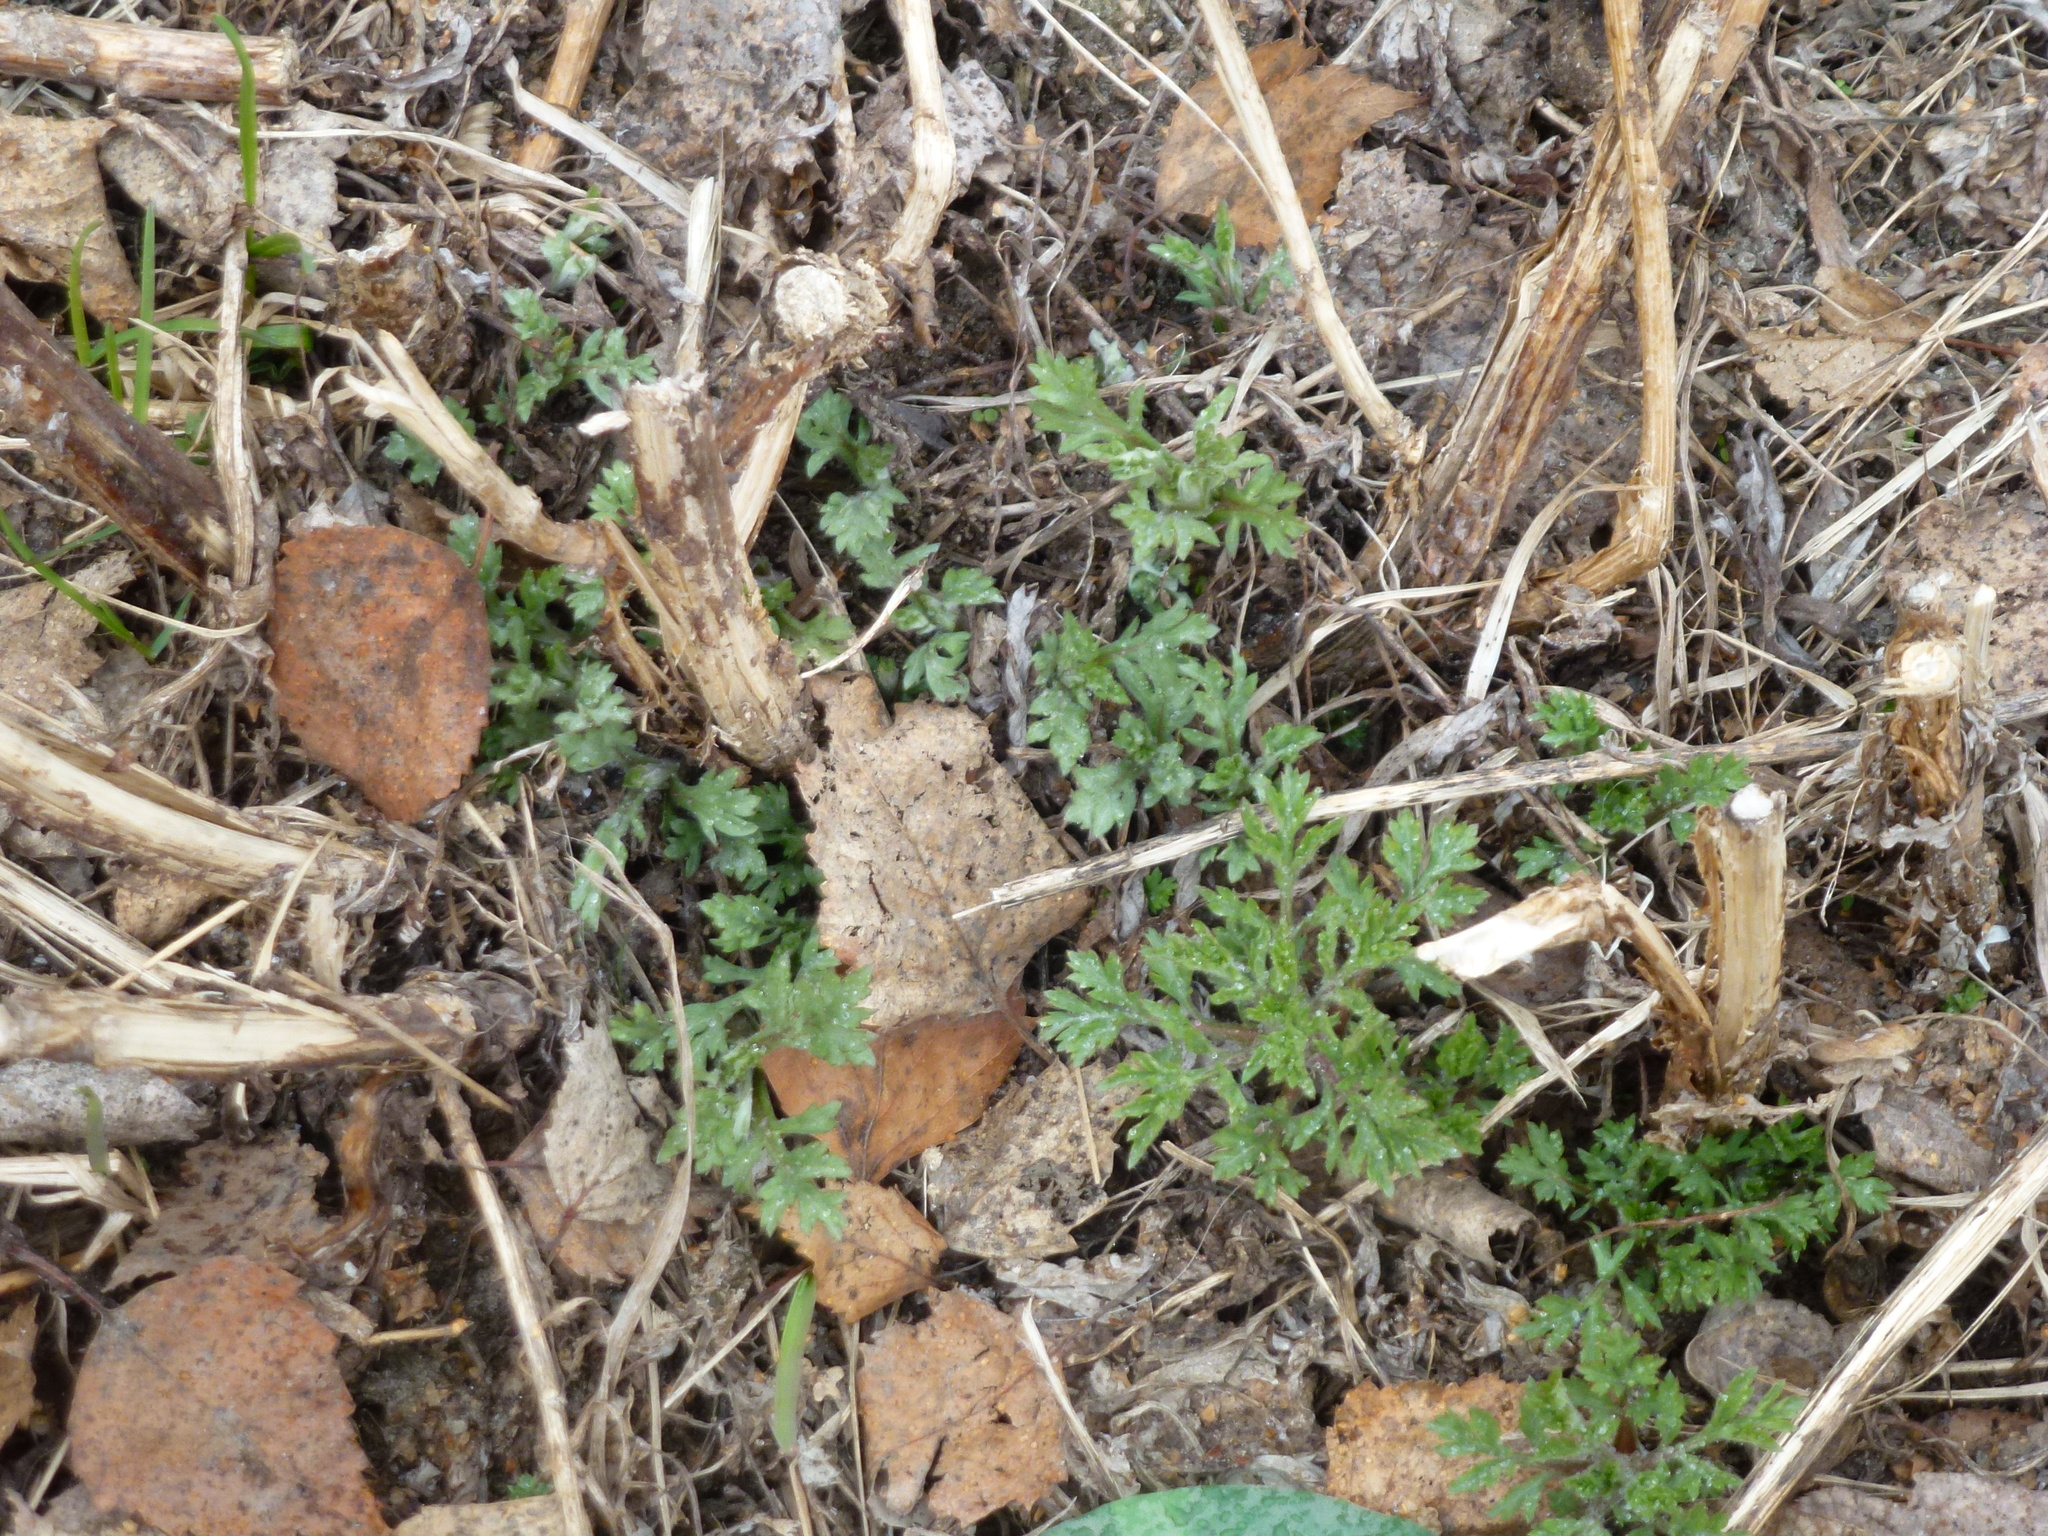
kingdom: Plantae
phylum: Tracheophyta
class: Magnoliopsida
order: Asterales
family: Asteraceae
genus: Artemisia
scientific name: Artemisia vulgaris
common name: Mugwort
